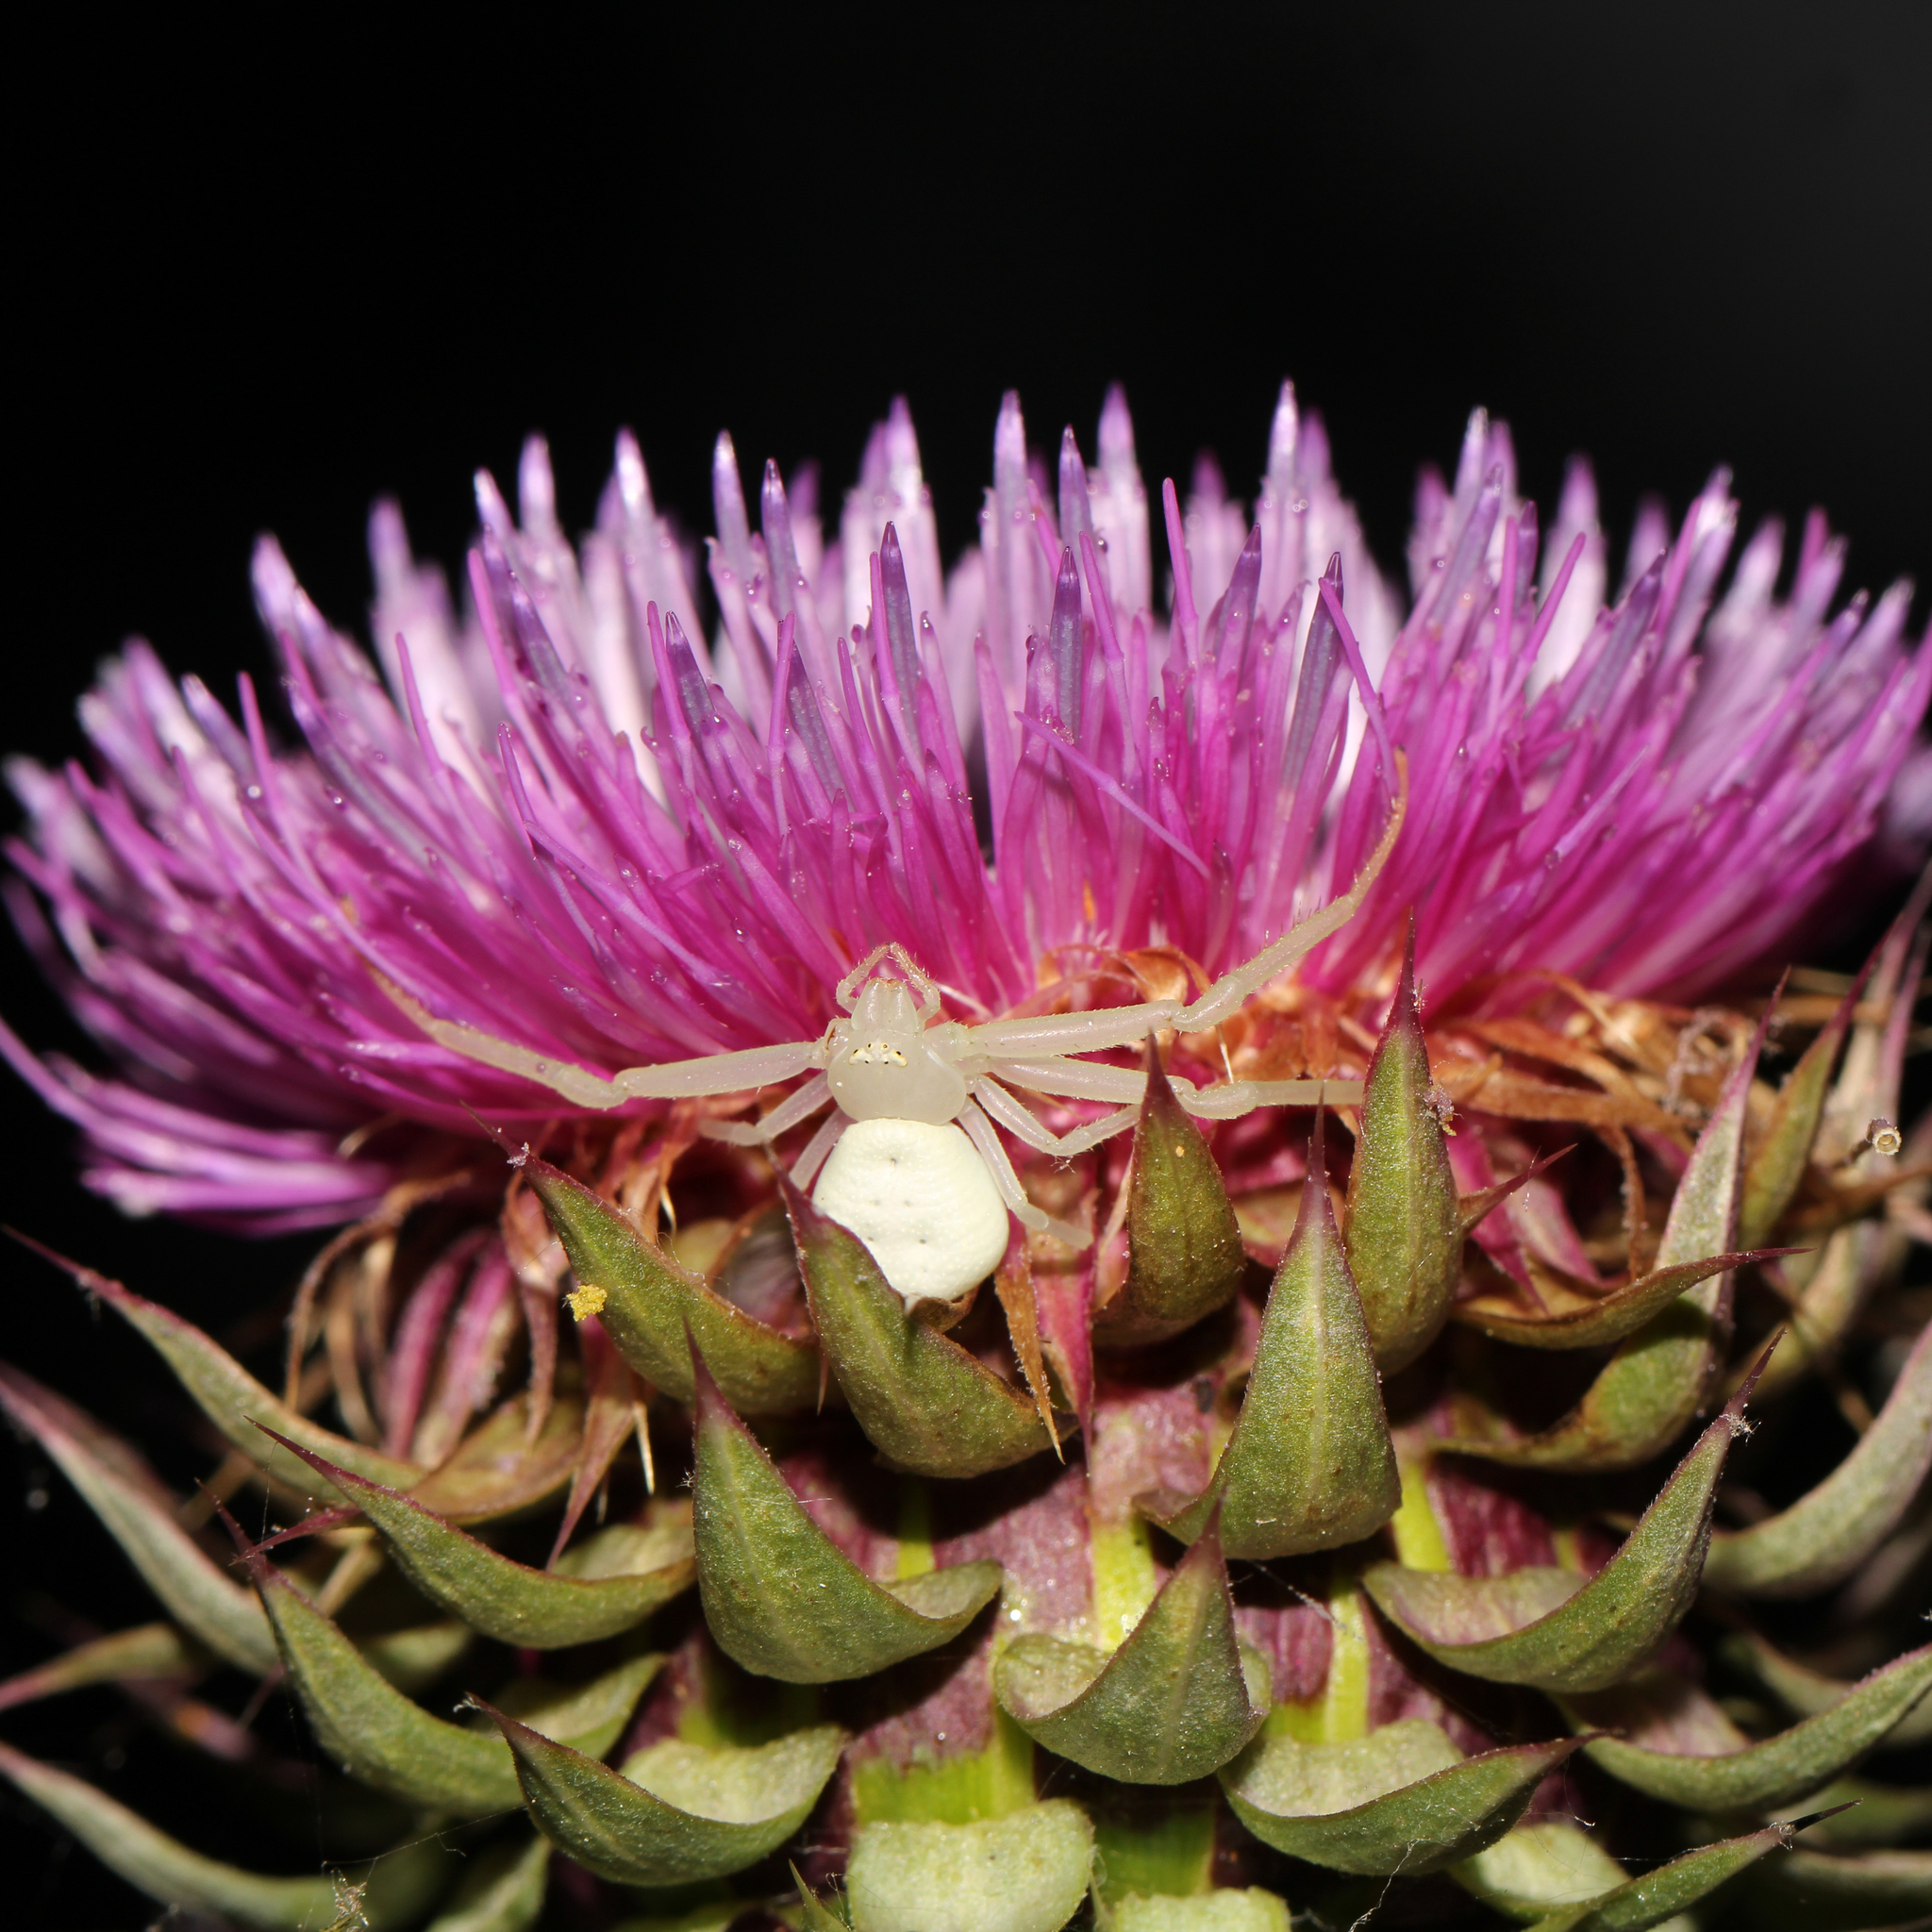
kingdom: Animalia
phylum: Arthropoda
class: Arachnida
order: Araneae
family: Thomisidae
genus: Misumessus
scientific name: Misumessus oblongus
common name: American green crab spider
